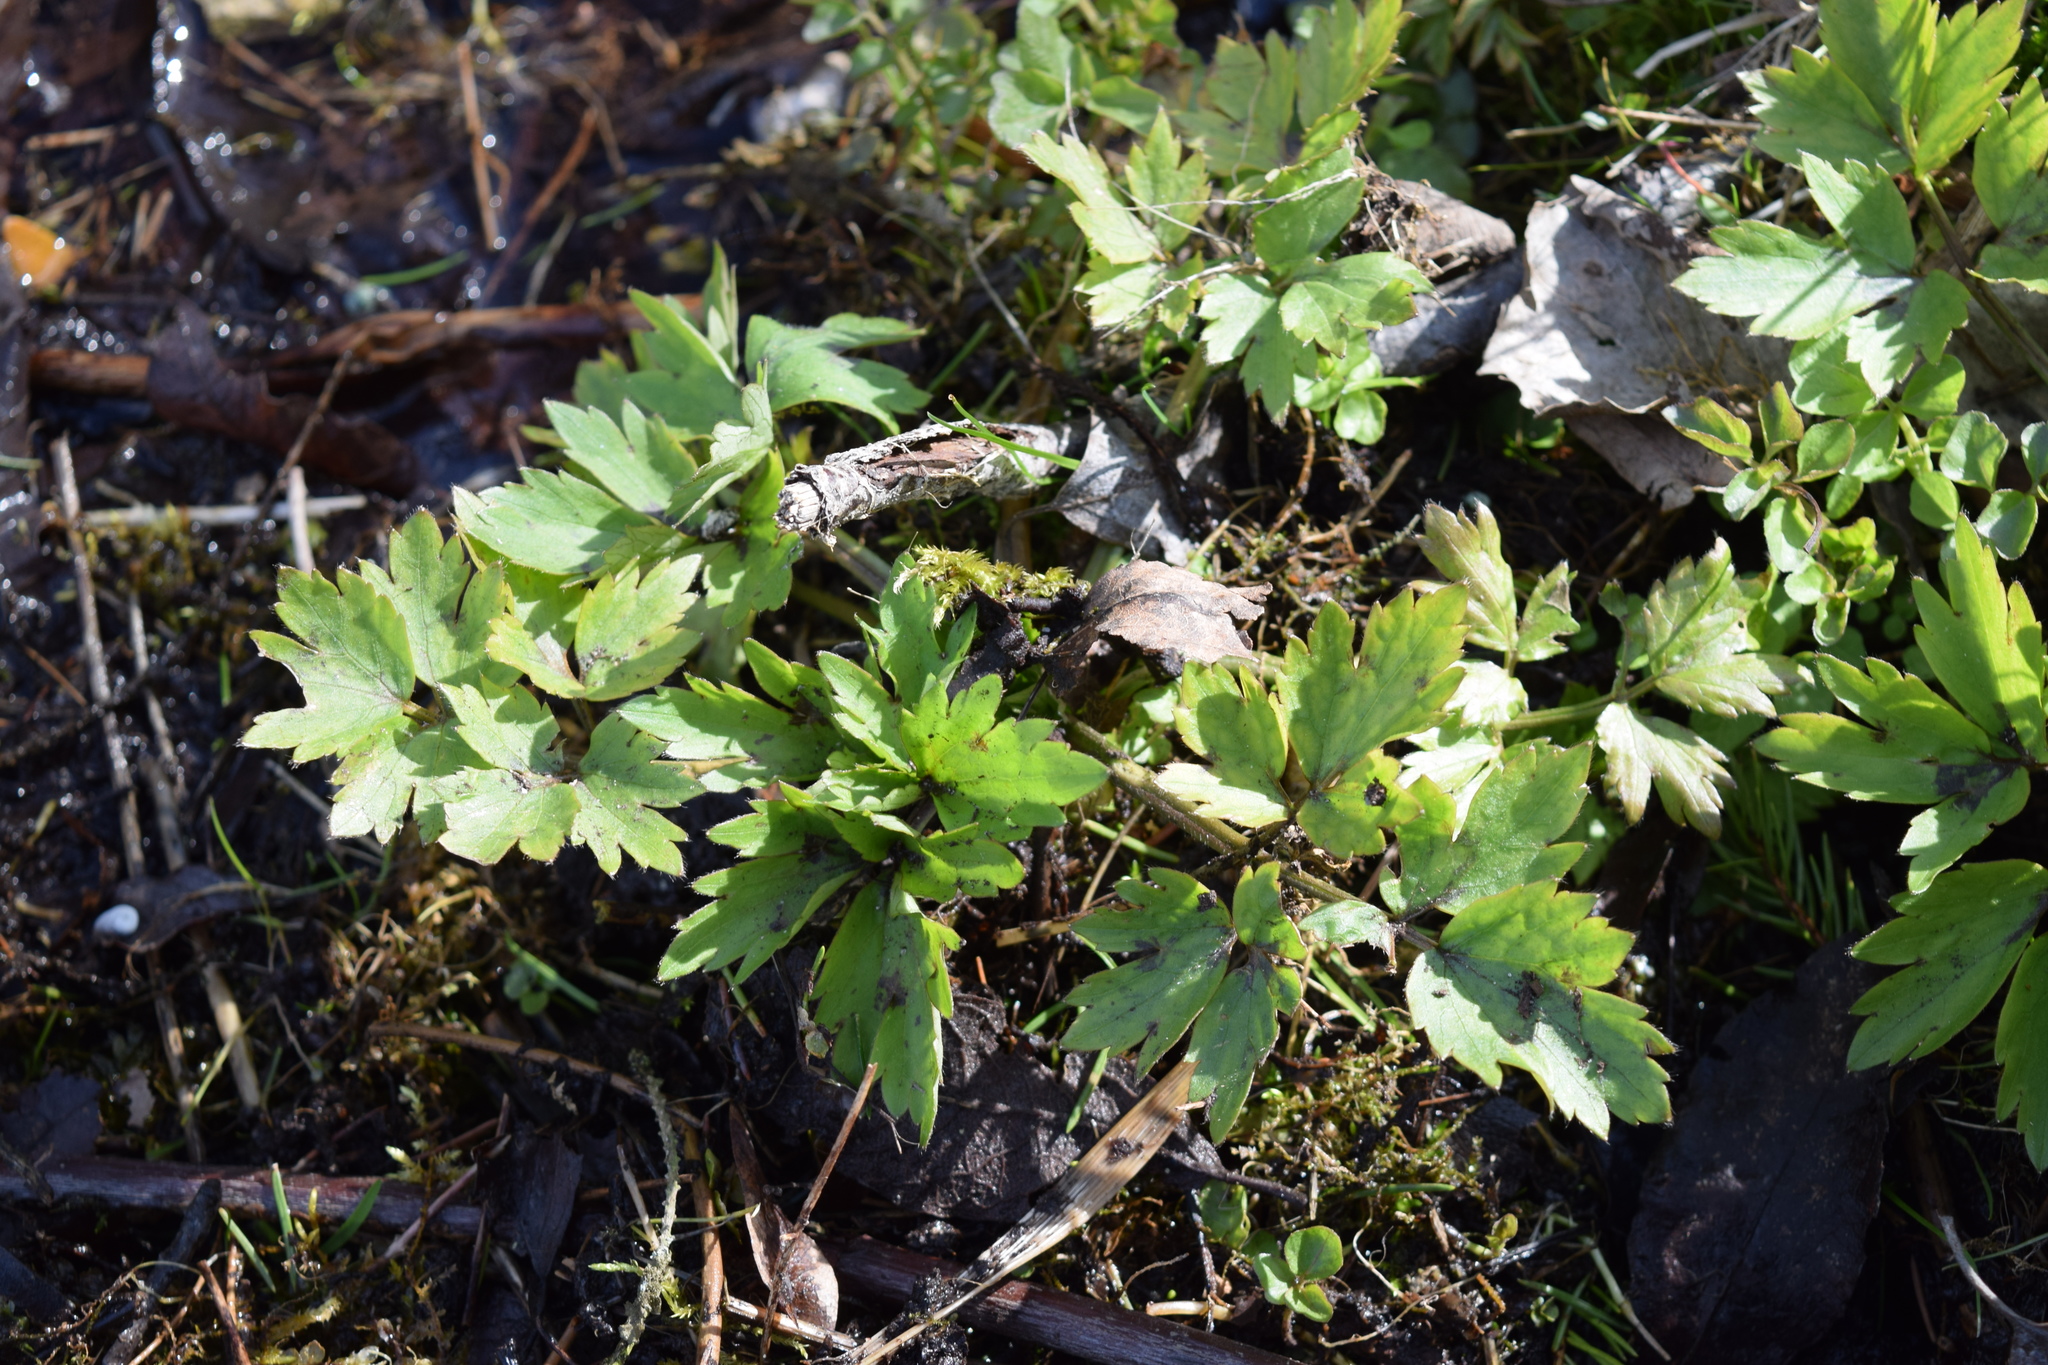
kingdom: Plantae
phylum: Tracheophyta
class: Magnoliopsida
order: Ranunculales
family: Ranunculaceae
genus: Ranunculus
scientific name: Ranunculus repens
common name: Creeping buttercup
